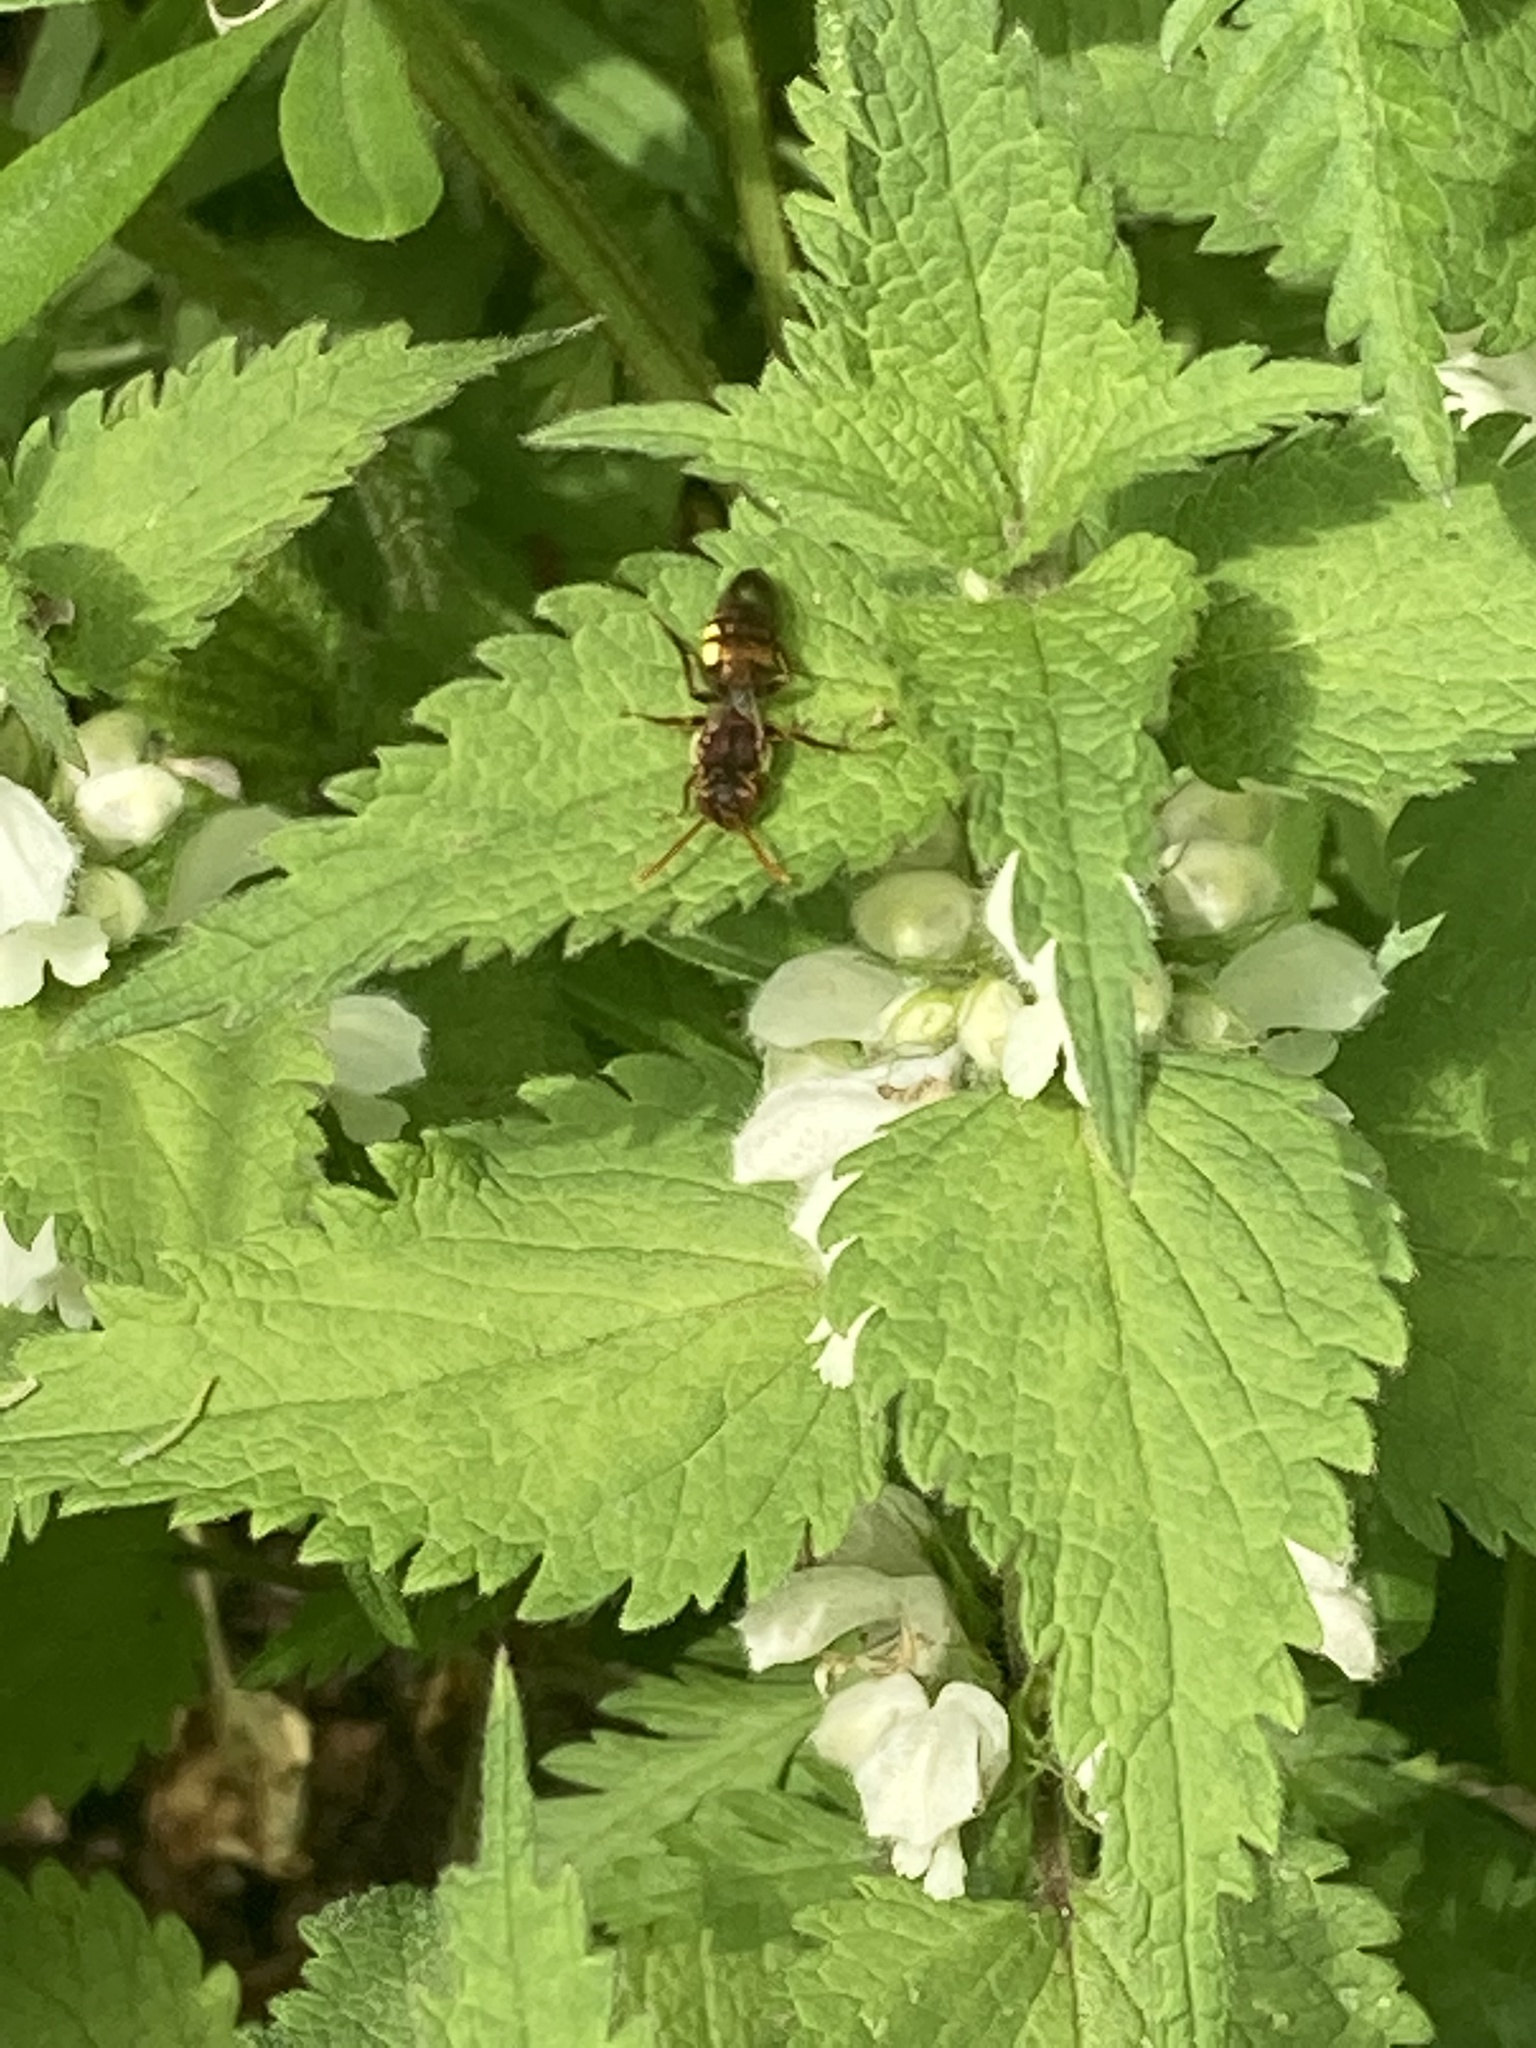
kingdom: Animalia
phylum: Arthropoda
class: Insecta
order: Hymenoptera
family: Apidae
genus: Nomada
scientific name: Nomada
